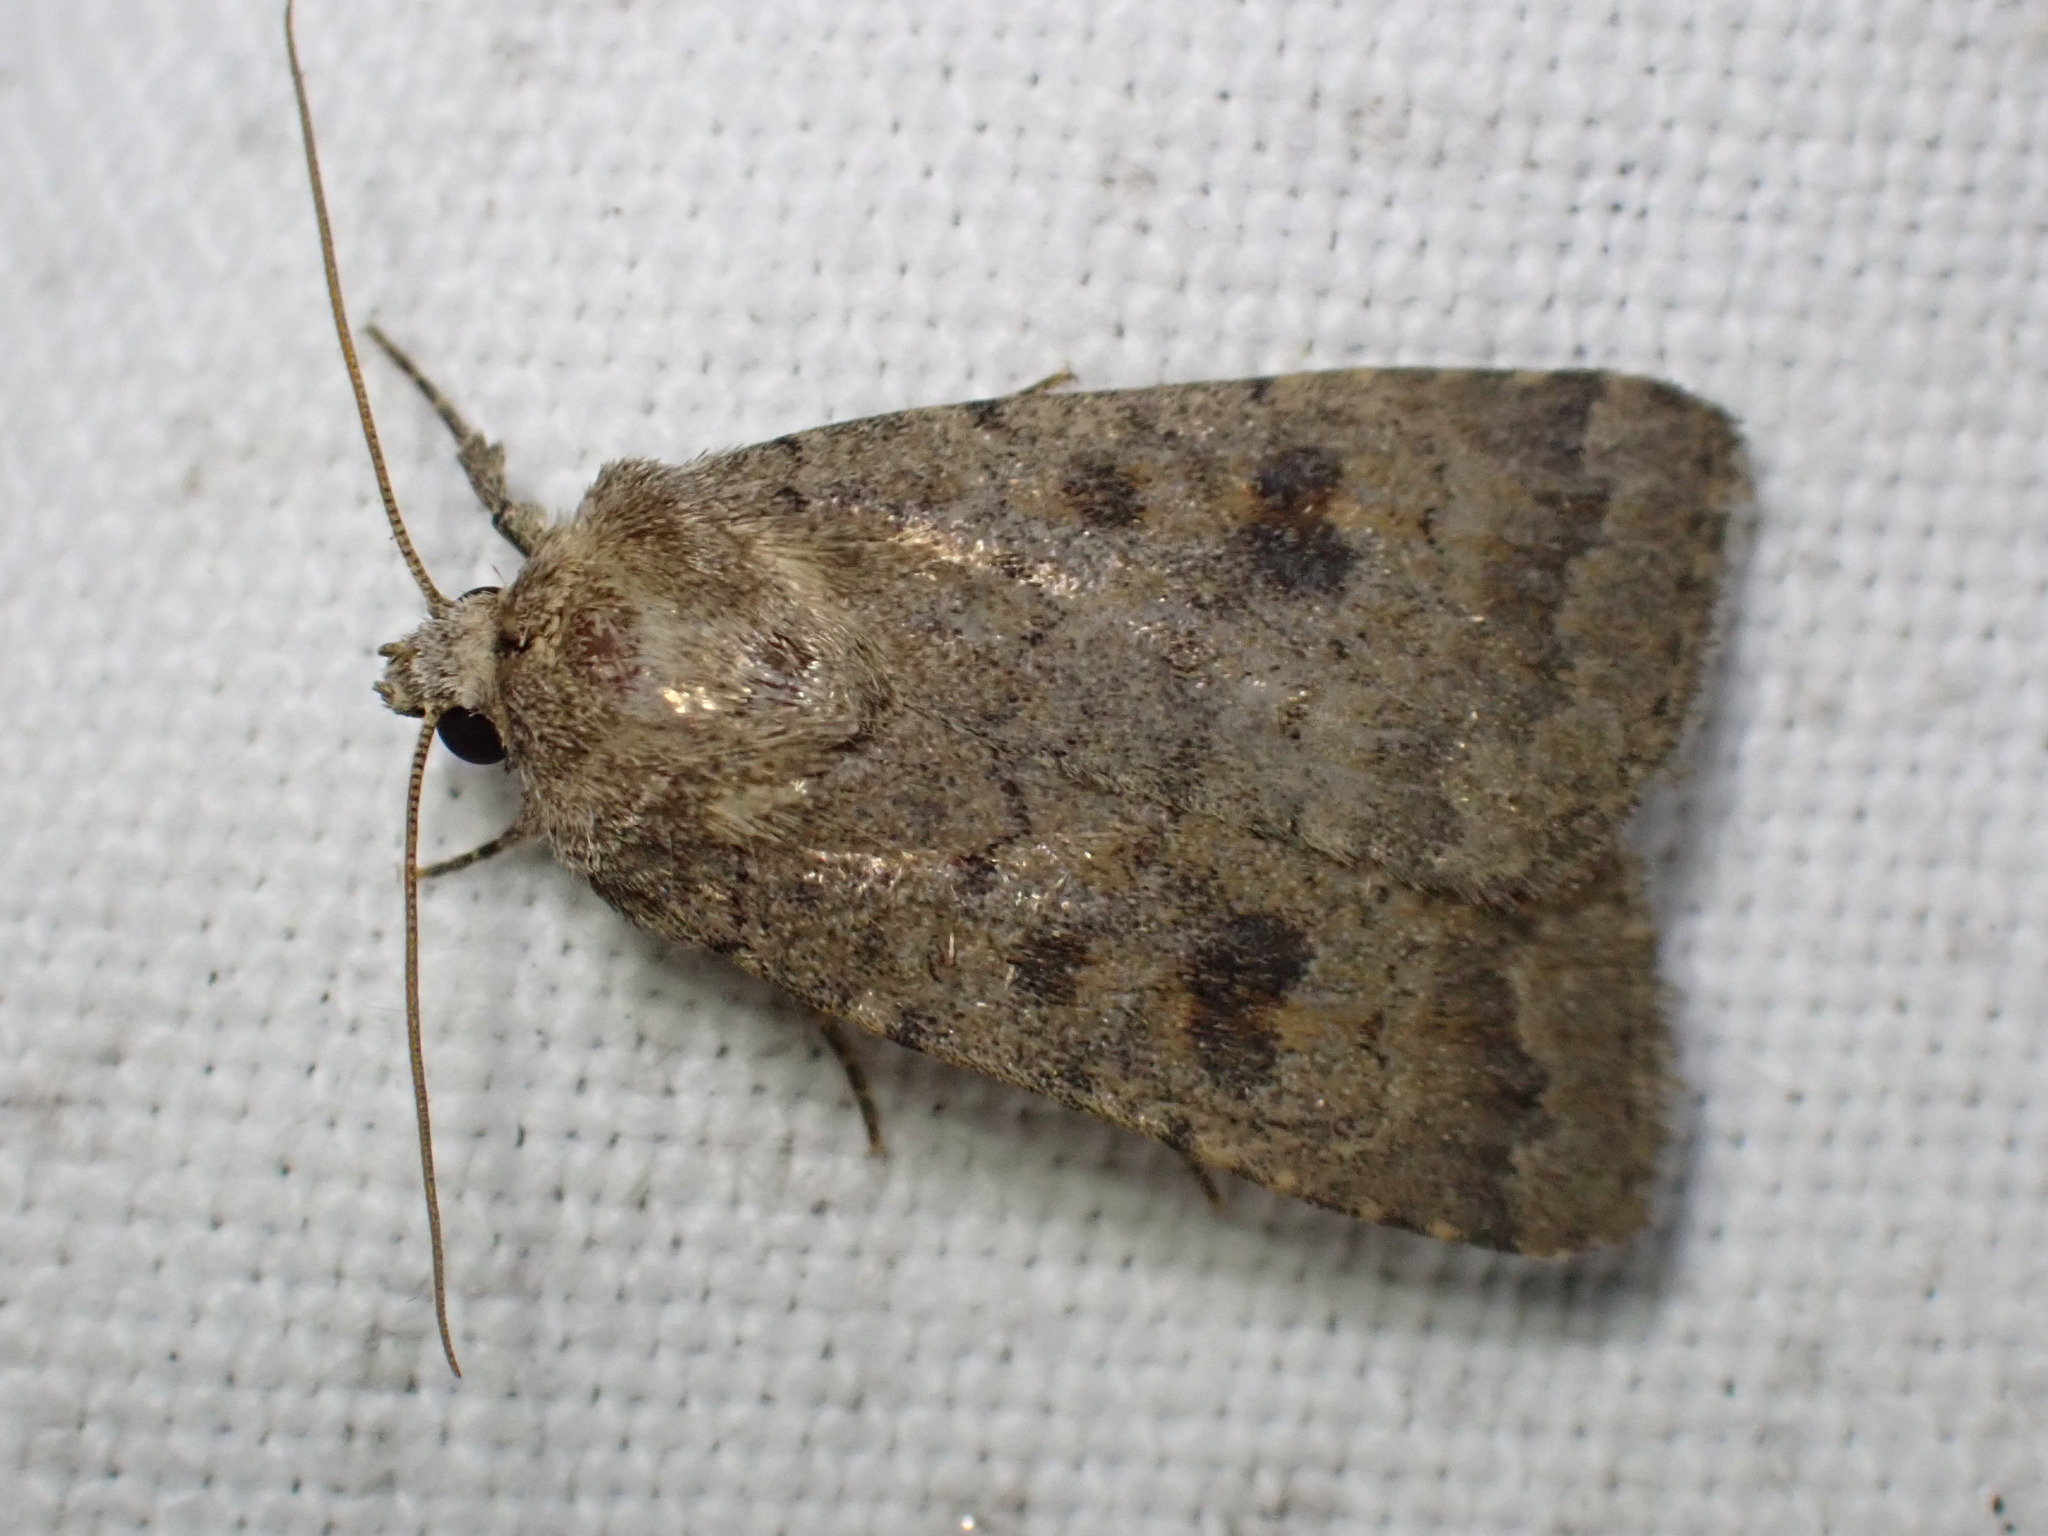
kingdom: Animalia
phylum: Arthropoda
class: Insecta
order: Lepidoptera
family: Noctuidae
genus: Caradrina
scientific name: Caradrina morpheus
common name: Mottled rustic
